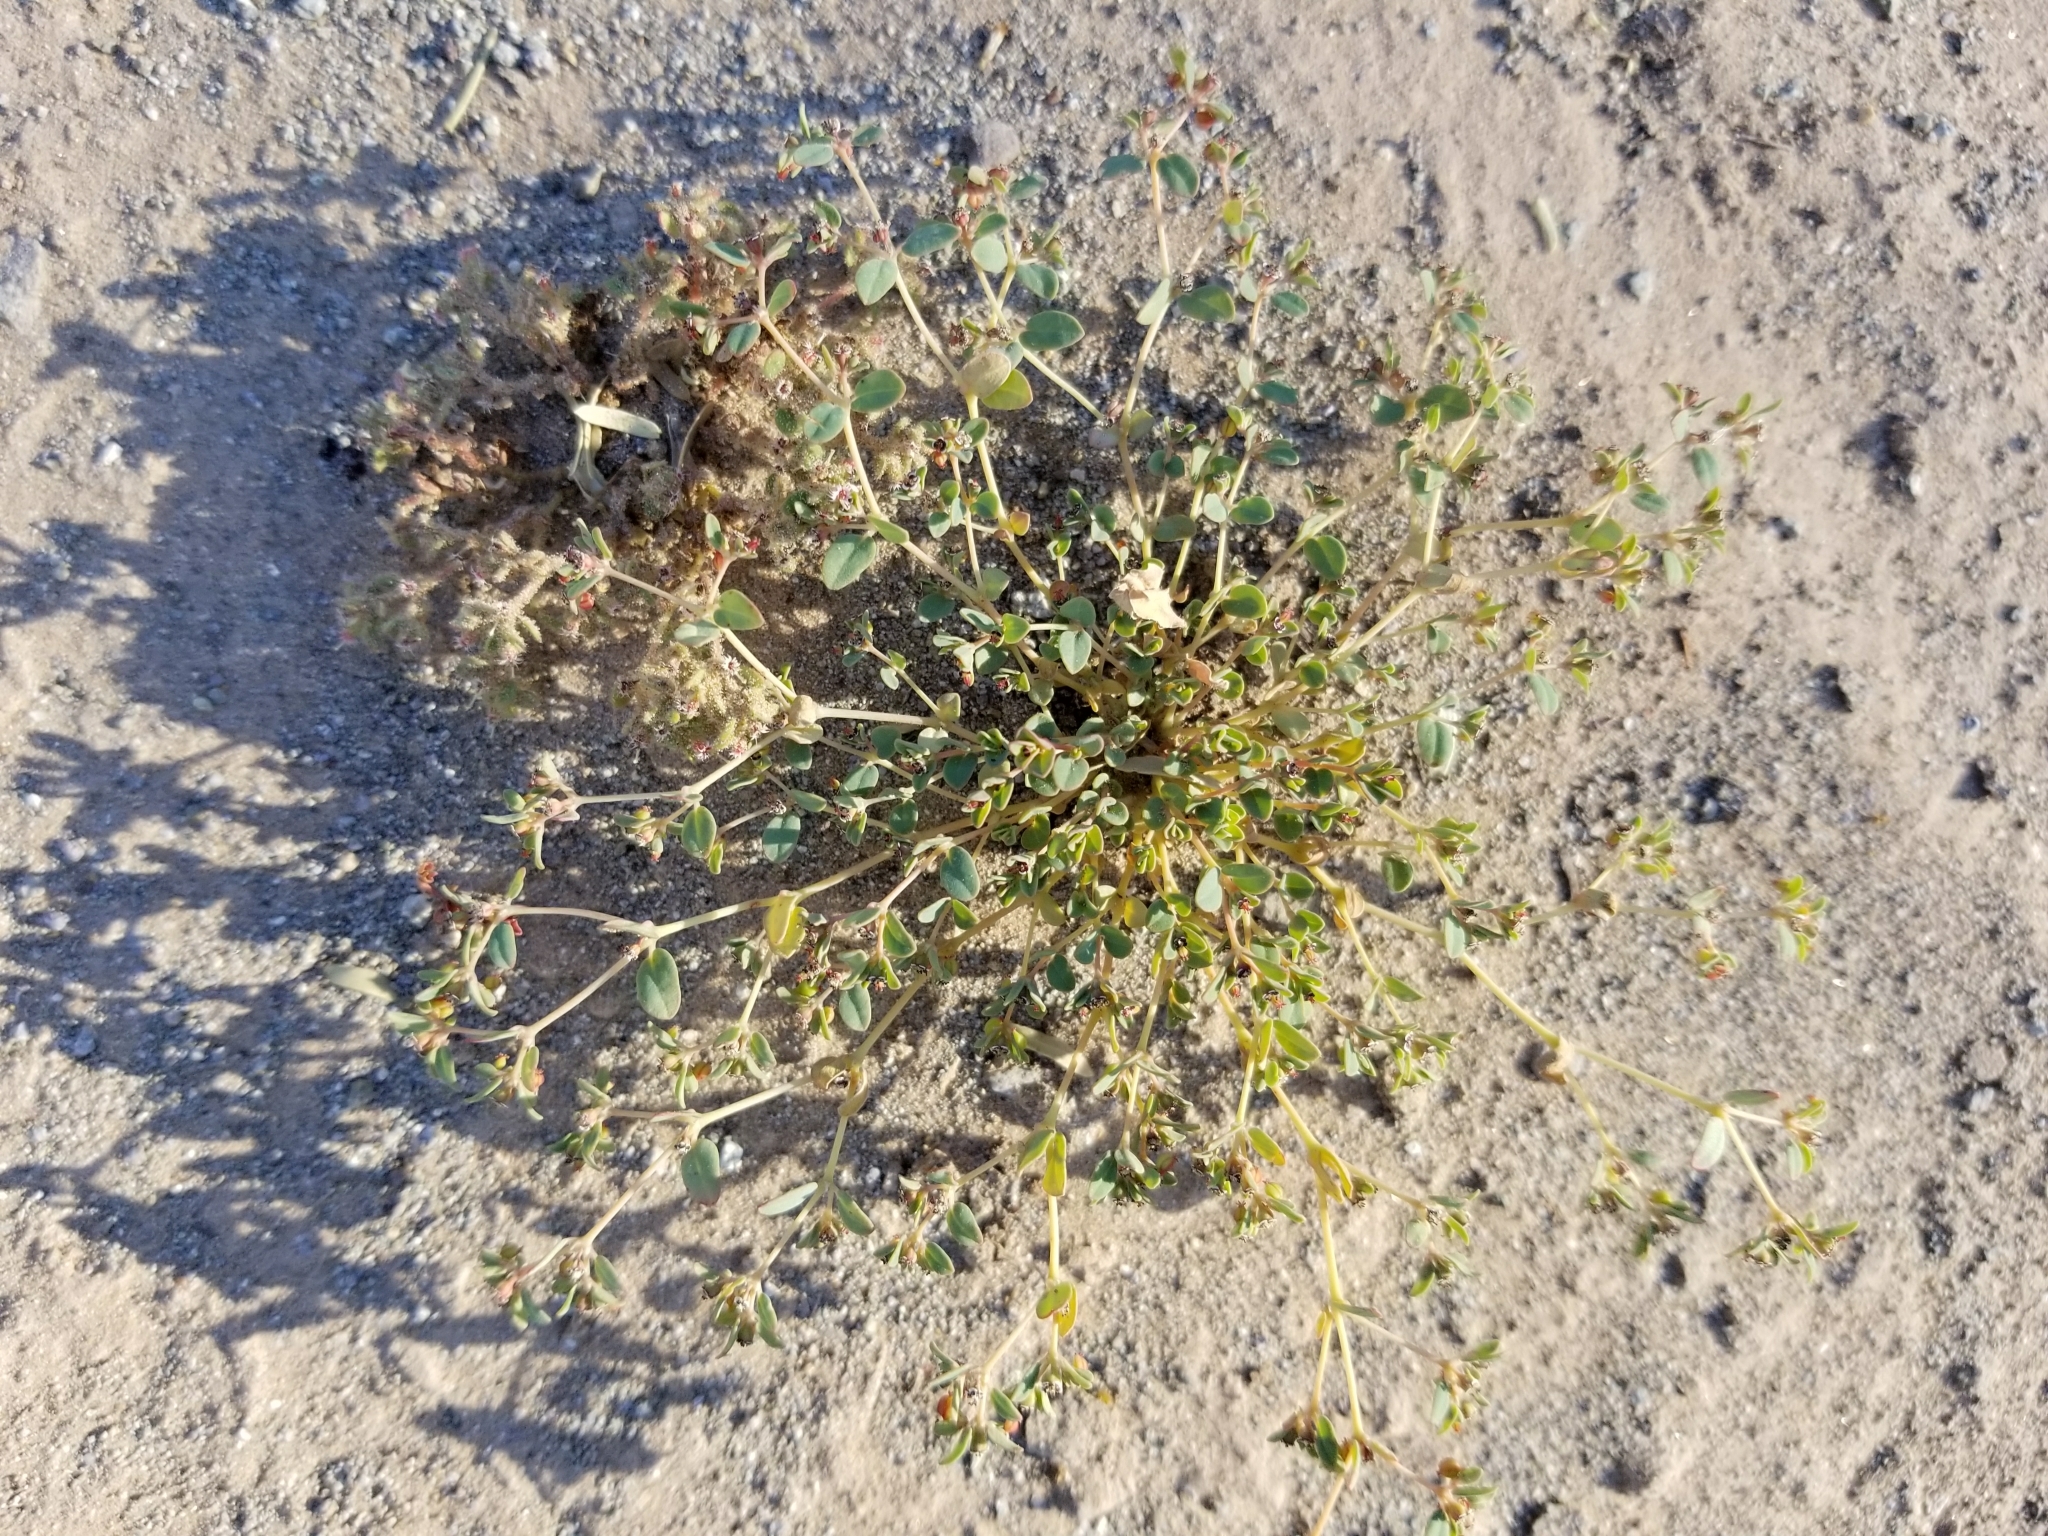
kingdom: Plantae
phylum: Tracheophyta
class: Magnoliopsida
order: Malpighiales
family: Euphorbiaceae
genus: Euphorbia
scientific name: Euphorbia polycarpa
